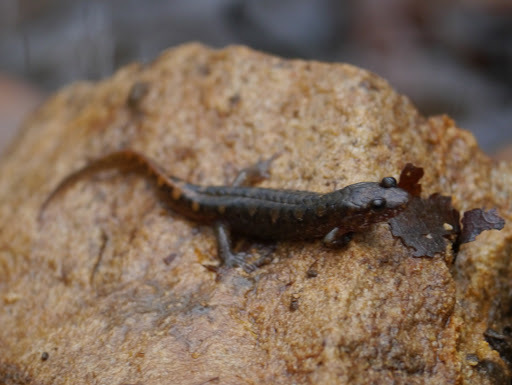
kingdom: Animalia
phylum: Chordata
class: Amphibia
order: Caudata
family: Plethodontidae
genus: Desmognathus
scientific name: Desmognathus monticola
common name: Seal salamander
